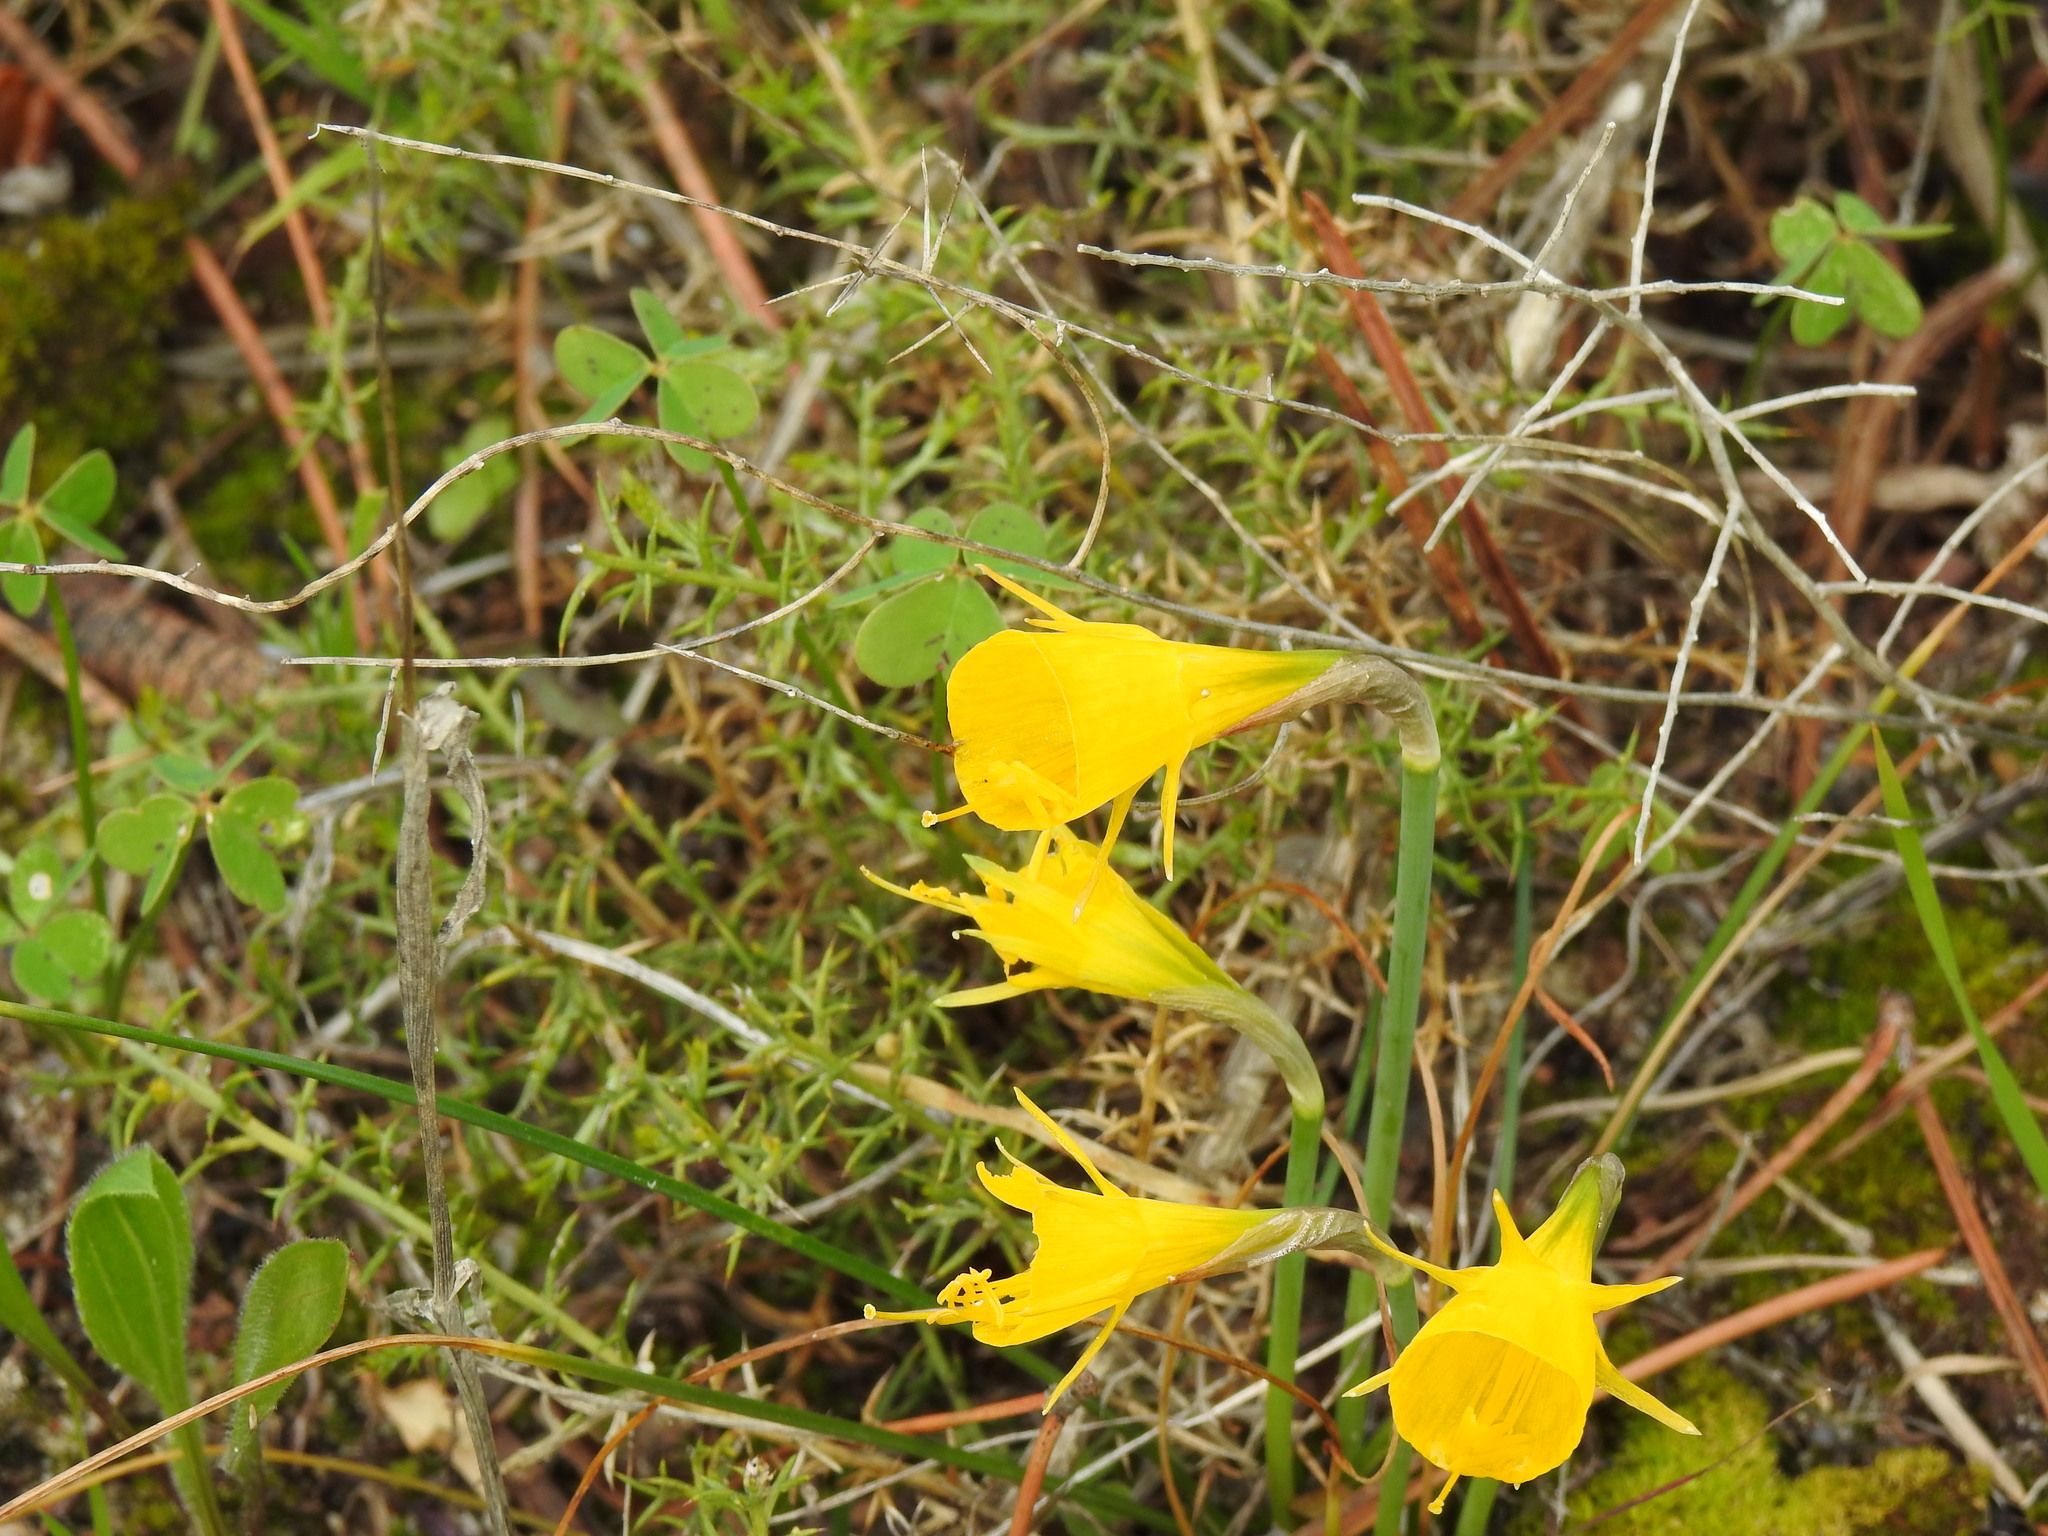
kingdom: Plantae
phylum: Tracheophyta
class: Liliopsida
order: Asparagales
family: Amaryllidaceae
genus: Narcissus
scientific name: Narcissus bulbocodium
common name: Hoop-petticoat daffodil
